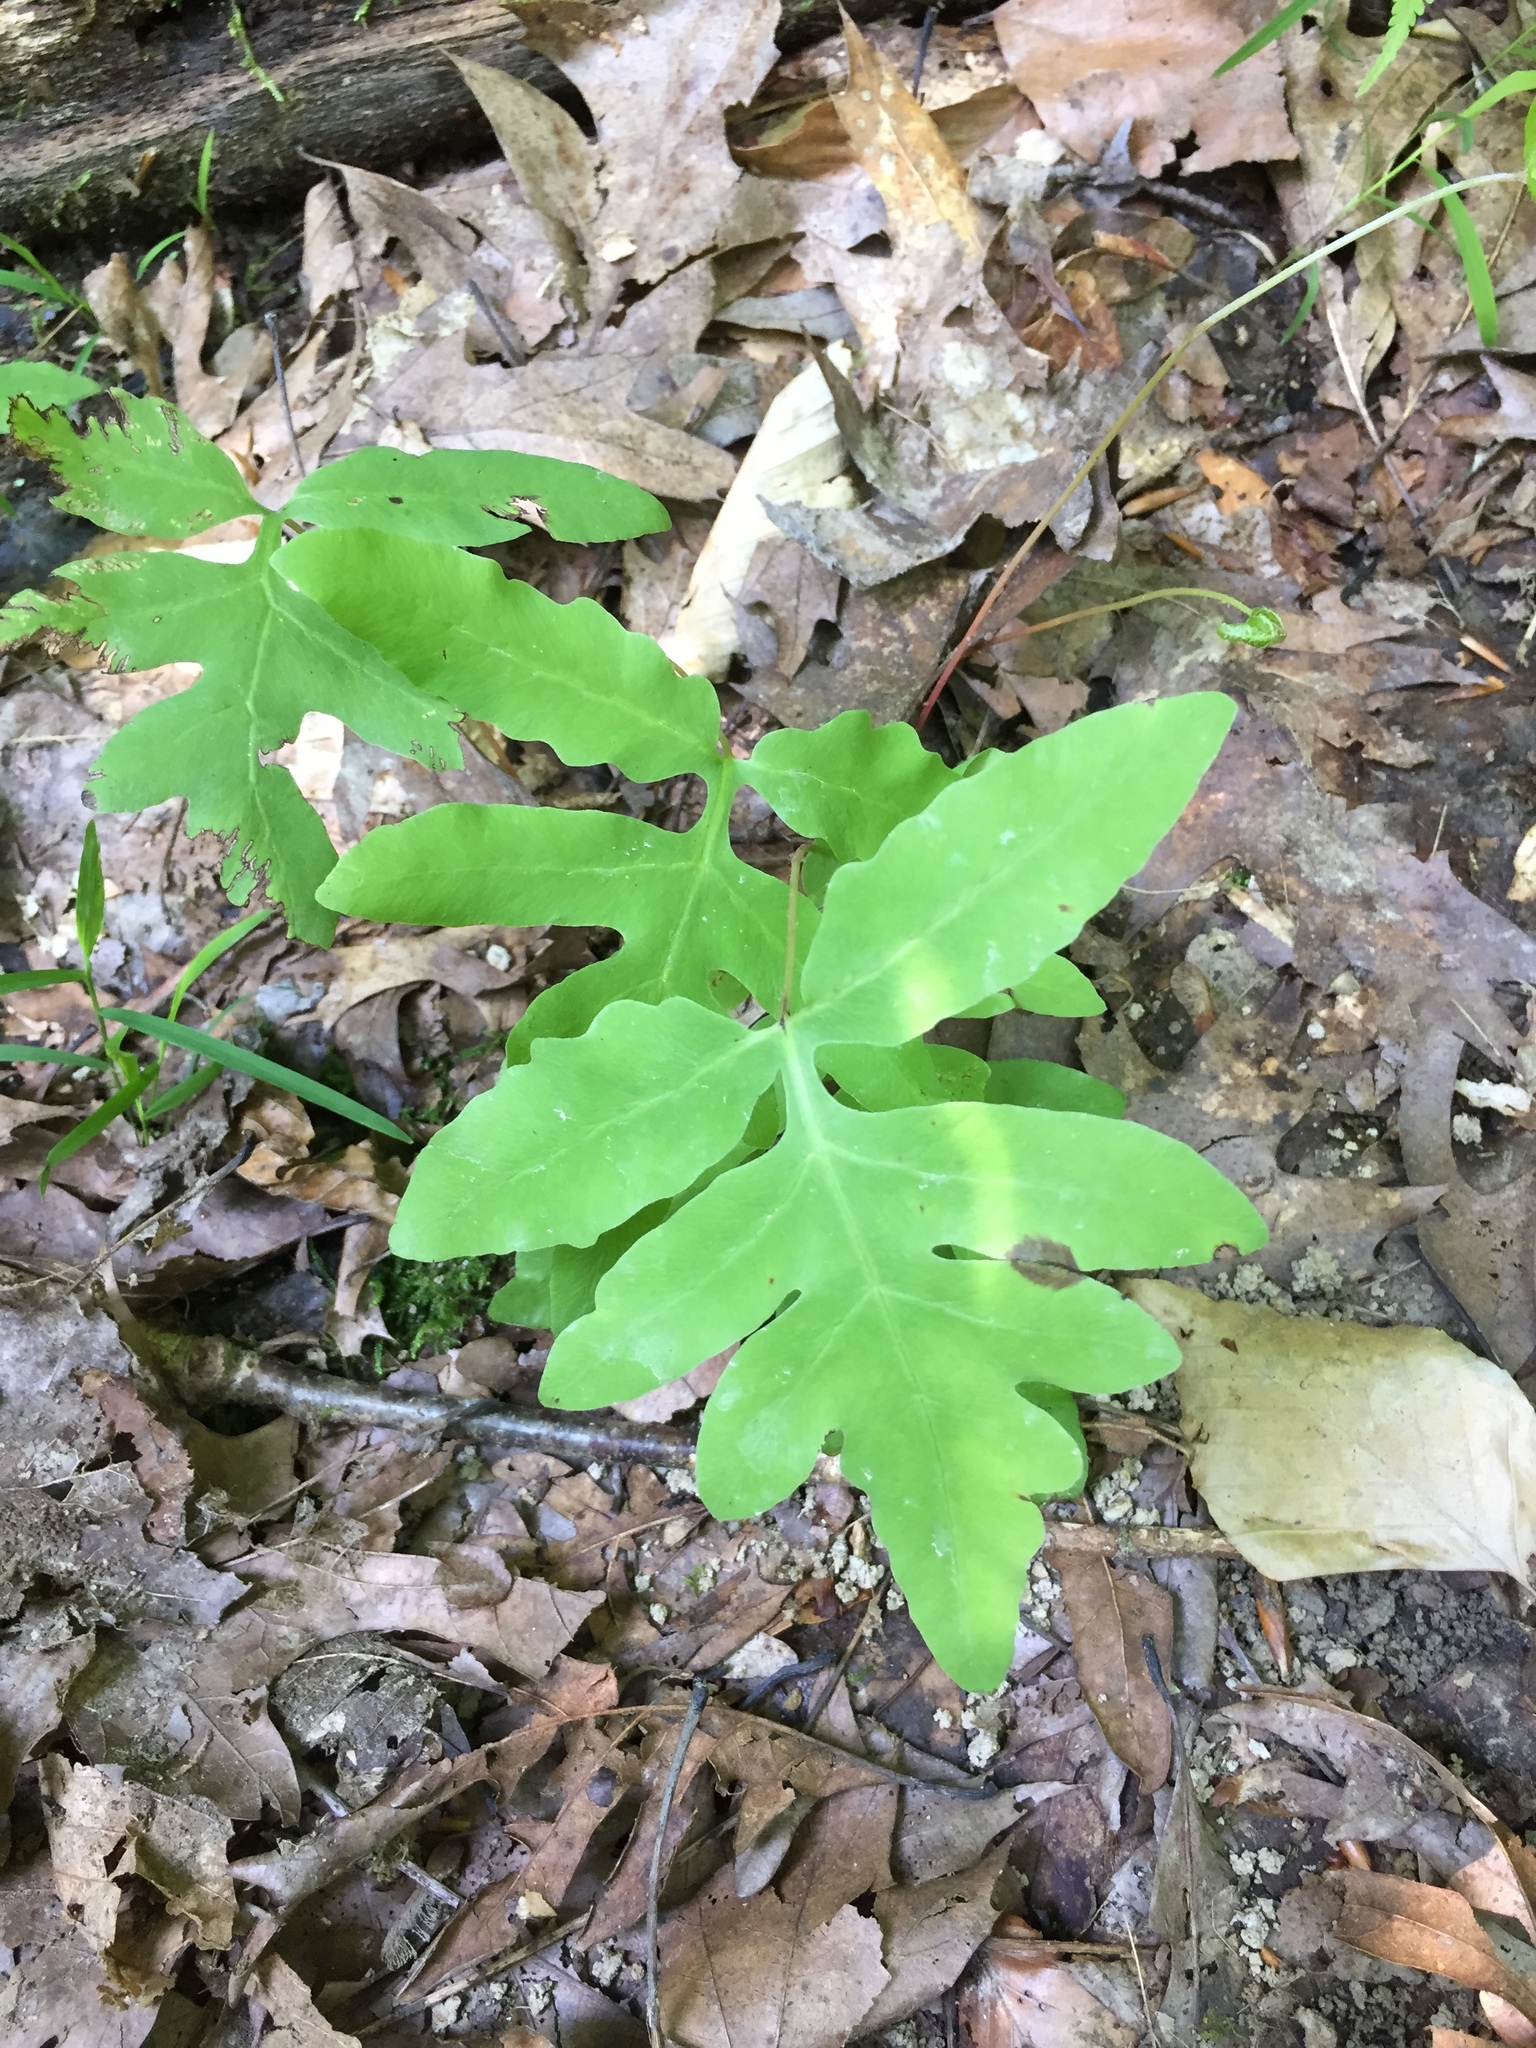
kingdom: Plantae
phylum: Tracheophyta
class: Polypodiopsida
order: Polypodiales
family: Onocleaceae
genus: Onoclea
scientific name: Onoclea sensibilis
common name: Sensitive fern
